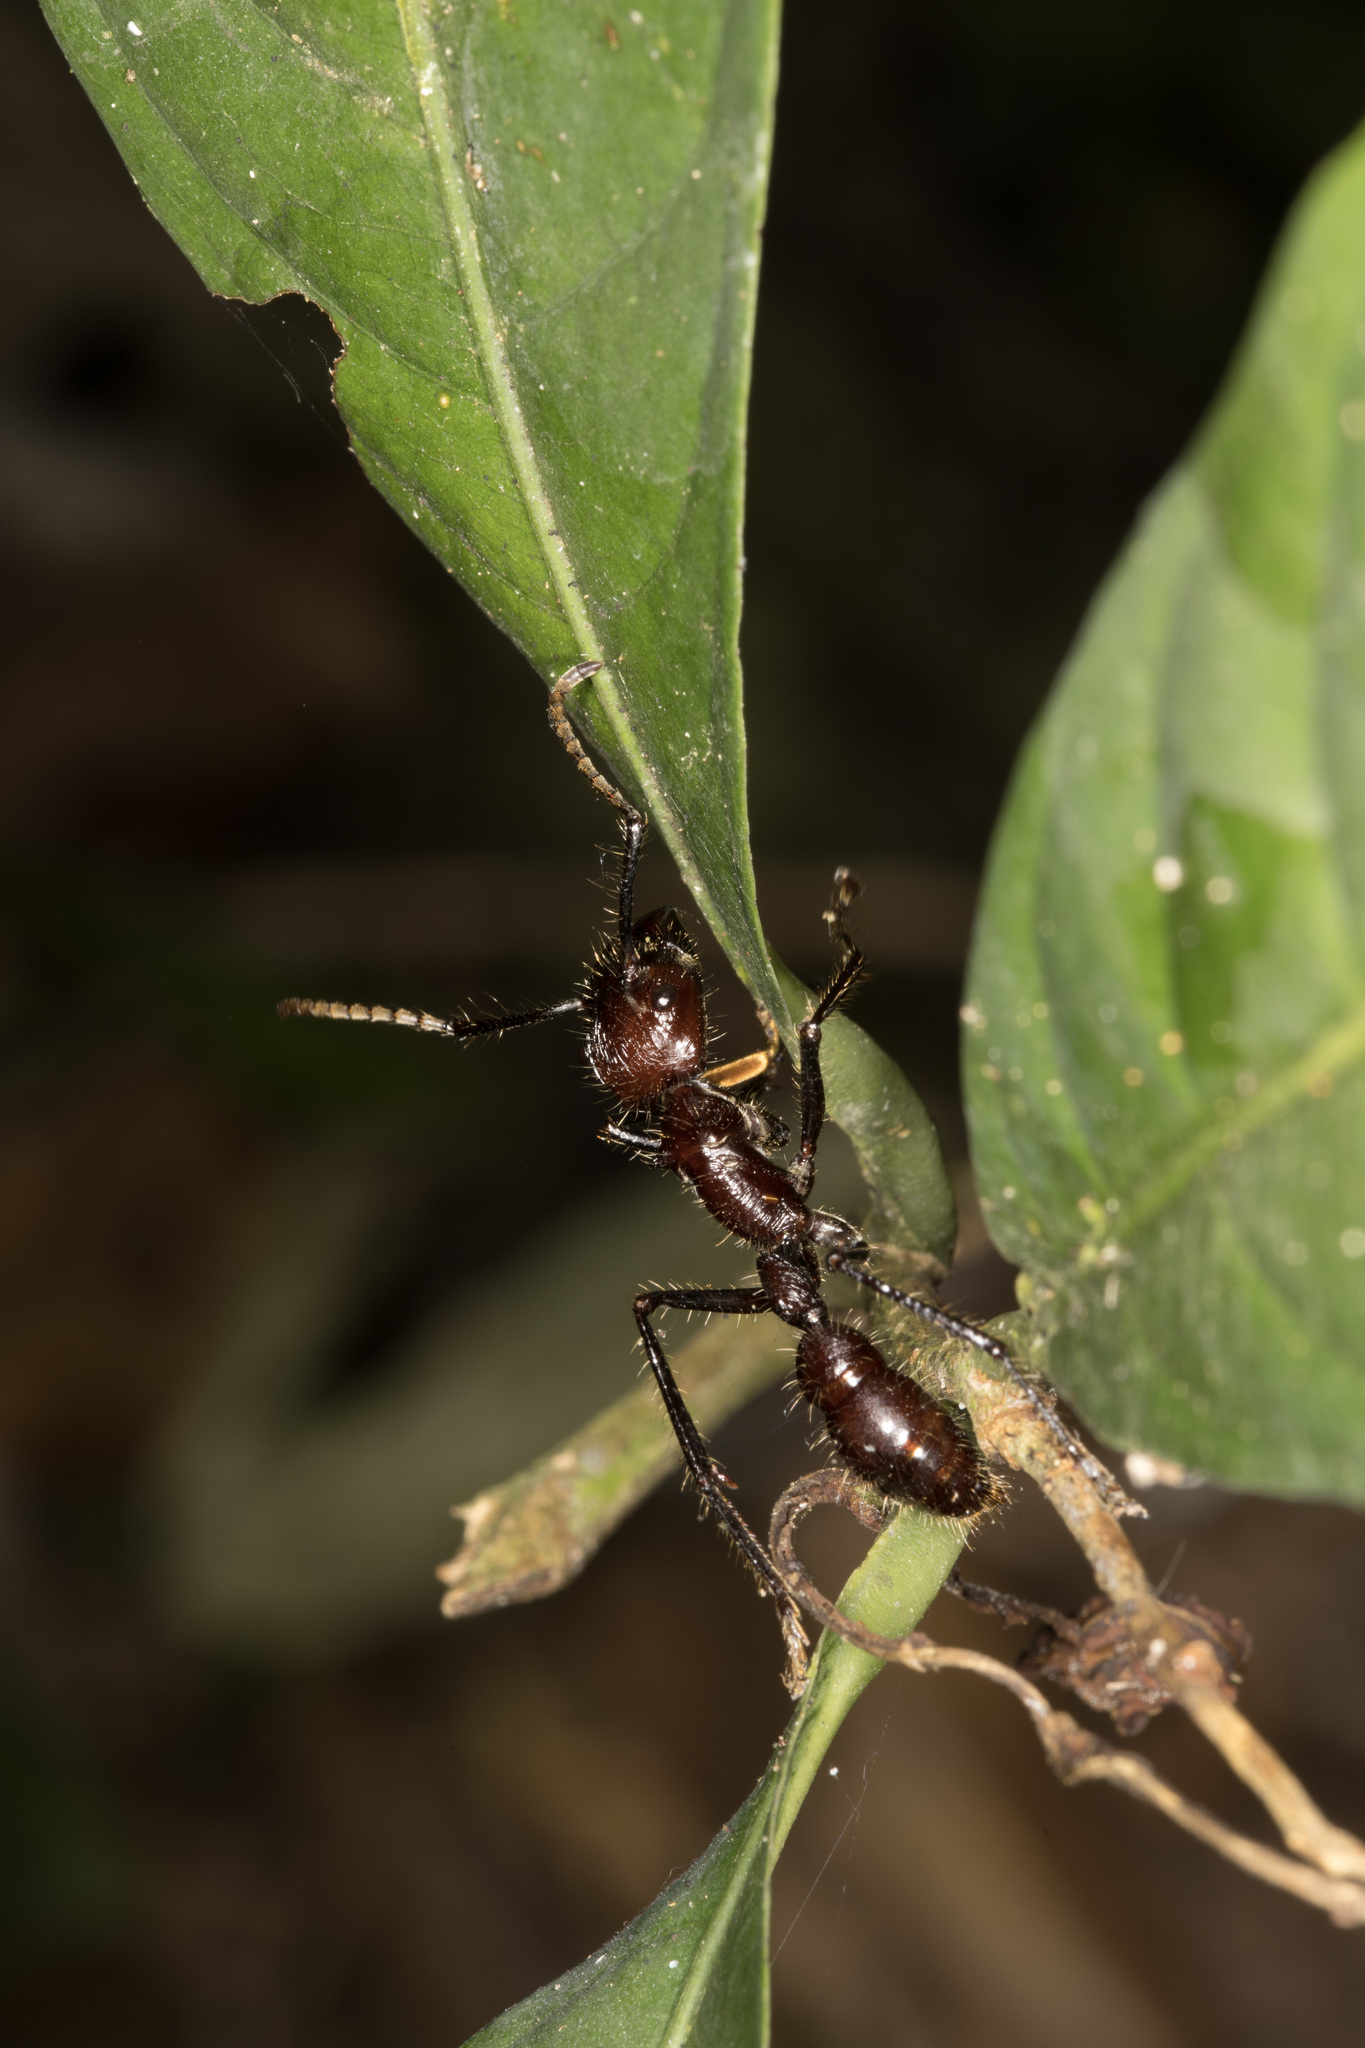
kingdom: Animalia
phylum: Arthropoda
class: Insecta
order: Hymenoptera
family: Formicidae
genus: Paraponera
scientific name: Paraponera clavata
